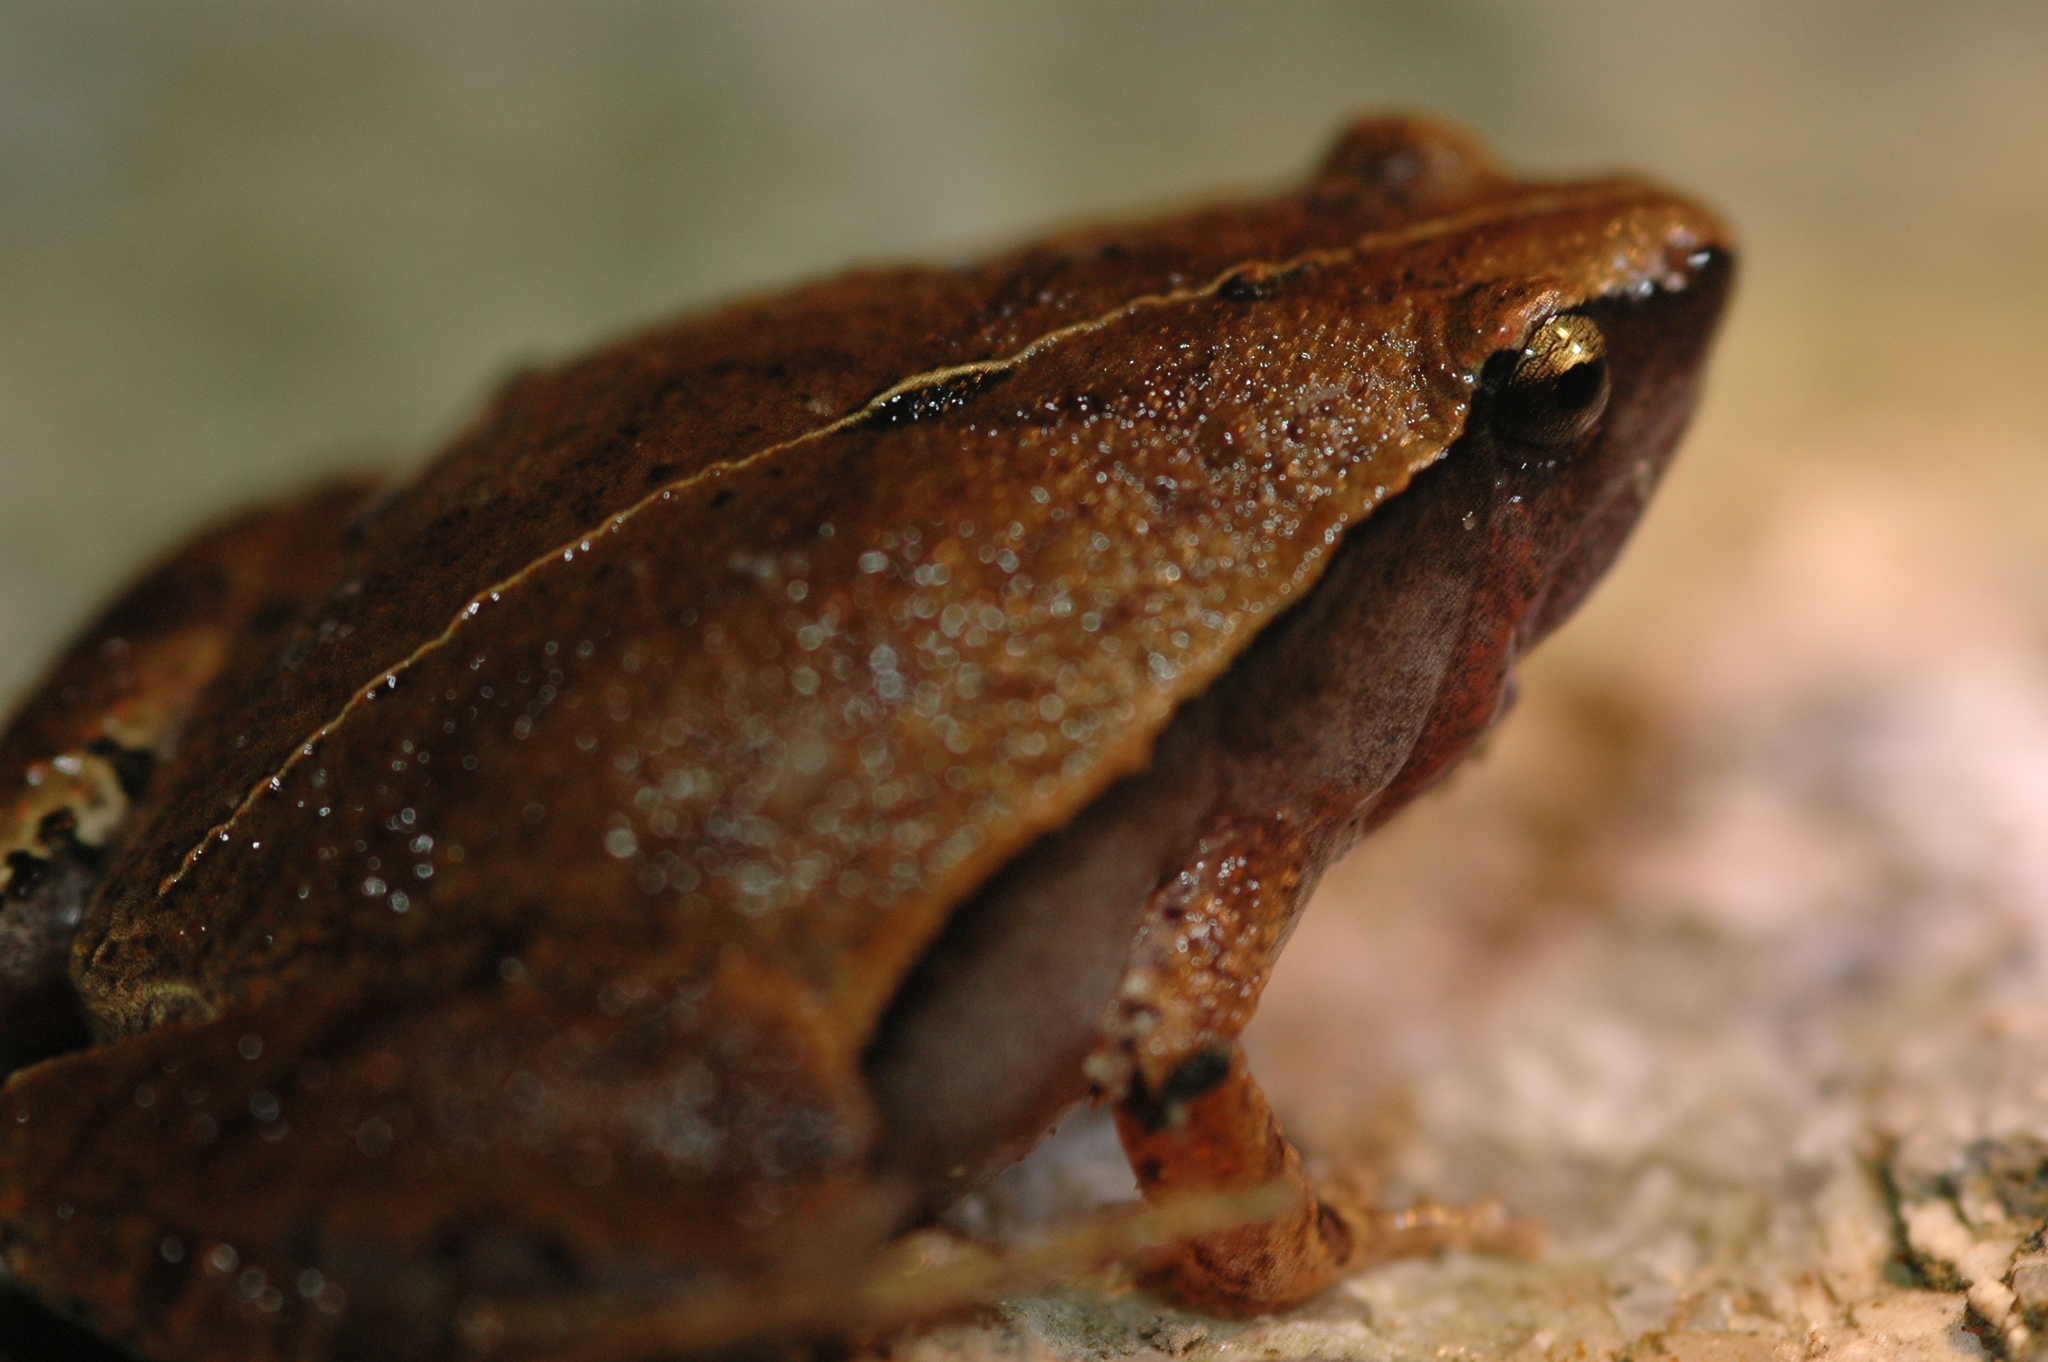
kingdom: Animalia
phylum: Chordata
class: Amphibia
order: Anura
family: Microhylidae
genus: Microhyla
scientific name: Microhyla heymonsi
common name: Taiwan rice frog,dark sided chorus frog
